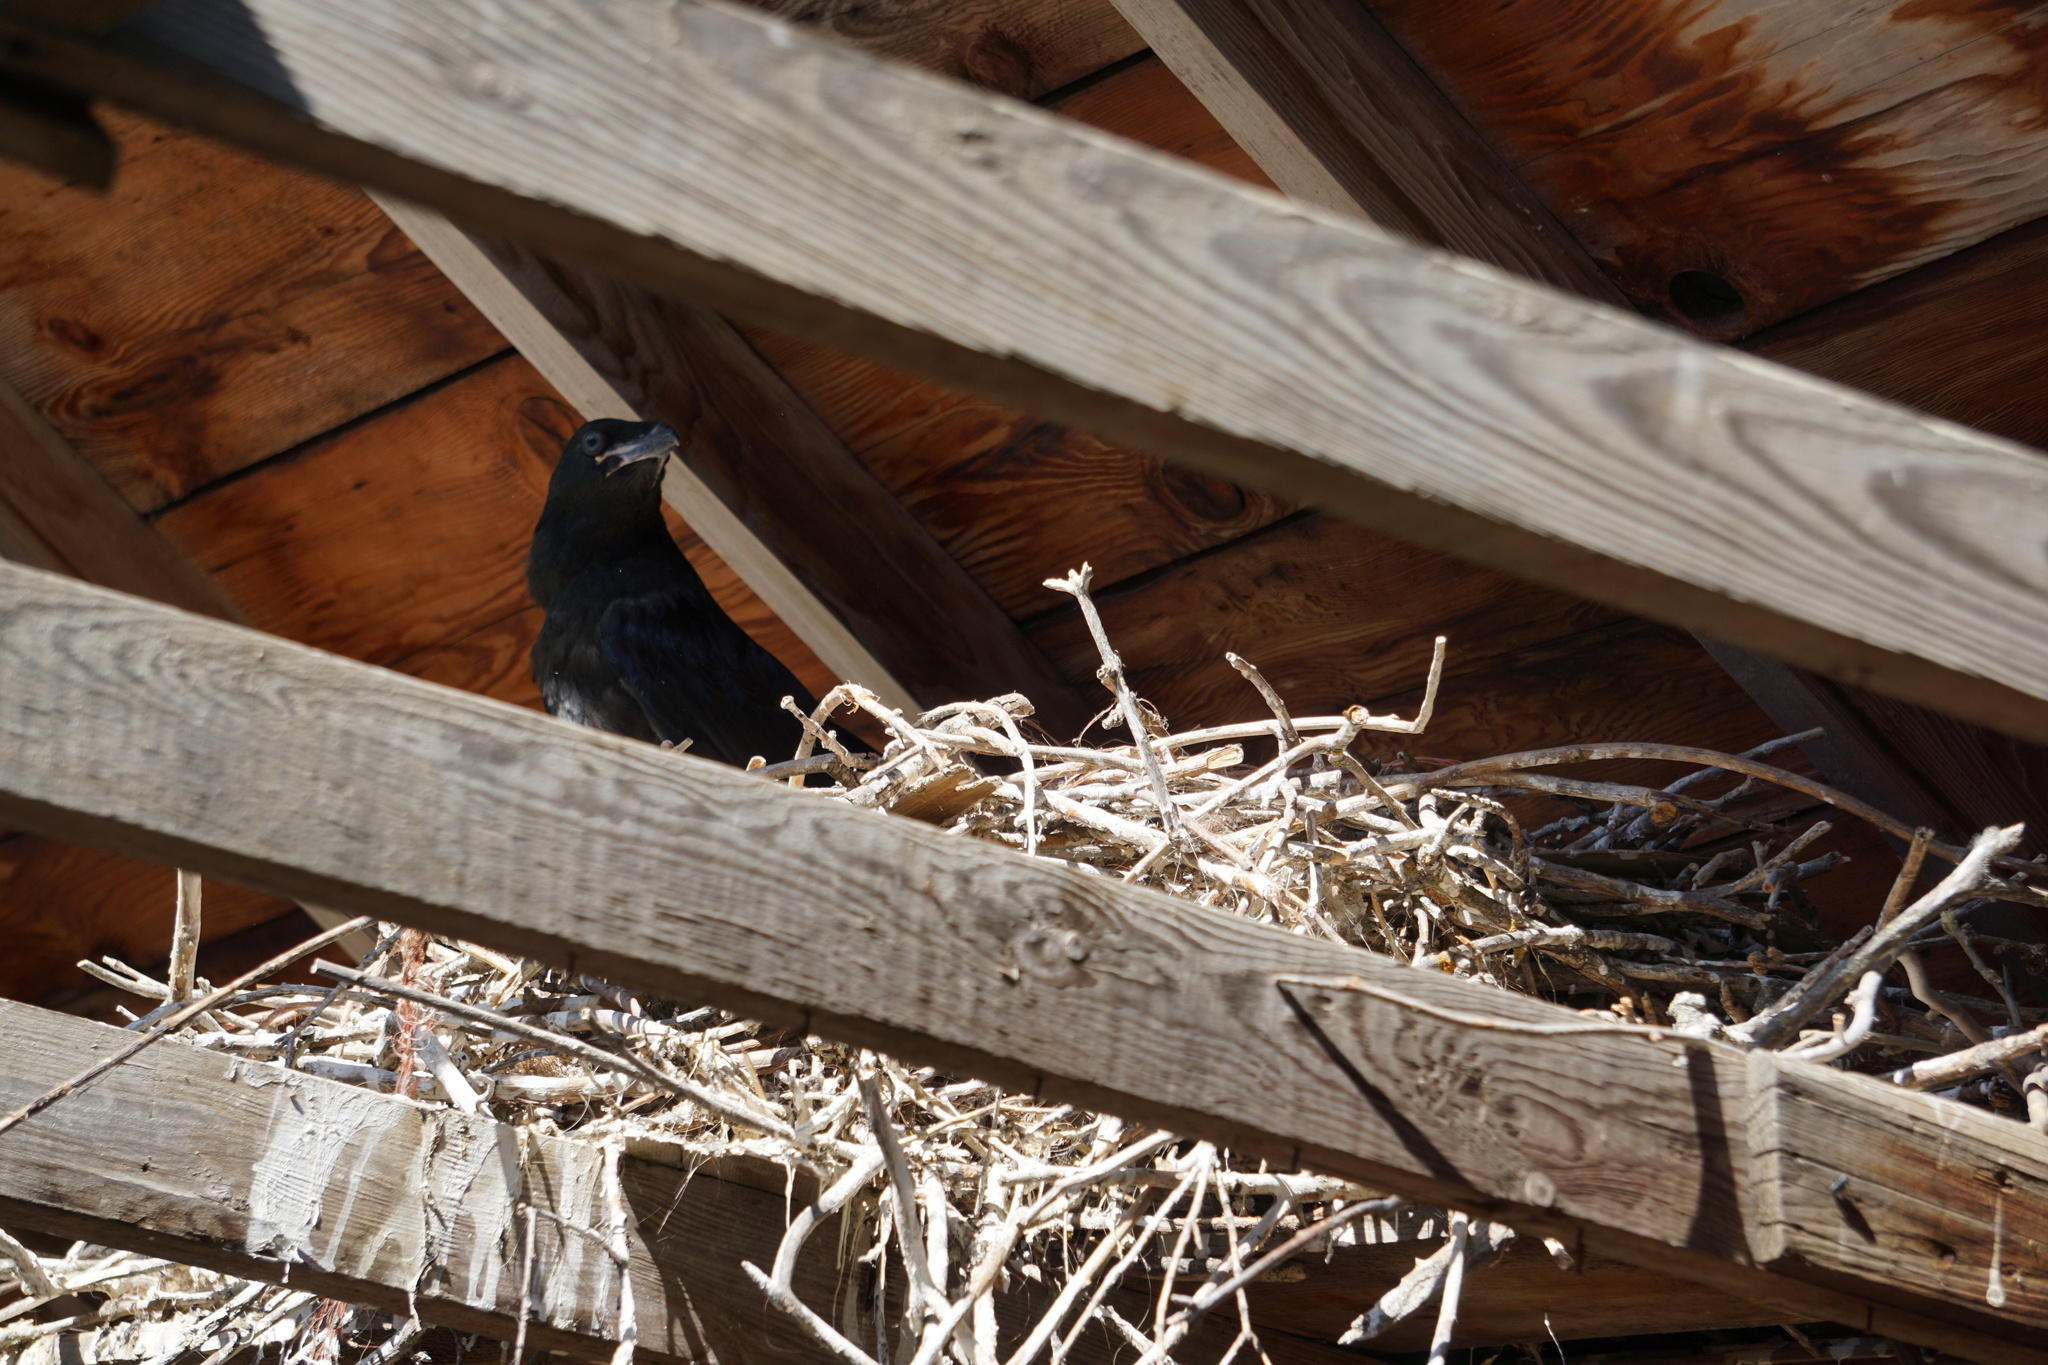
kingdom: Animalia
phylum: Chordata
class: Aves
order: Passeriformes
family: Corvidae
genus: Corvus
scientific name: Corvus corax
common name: Common raven
